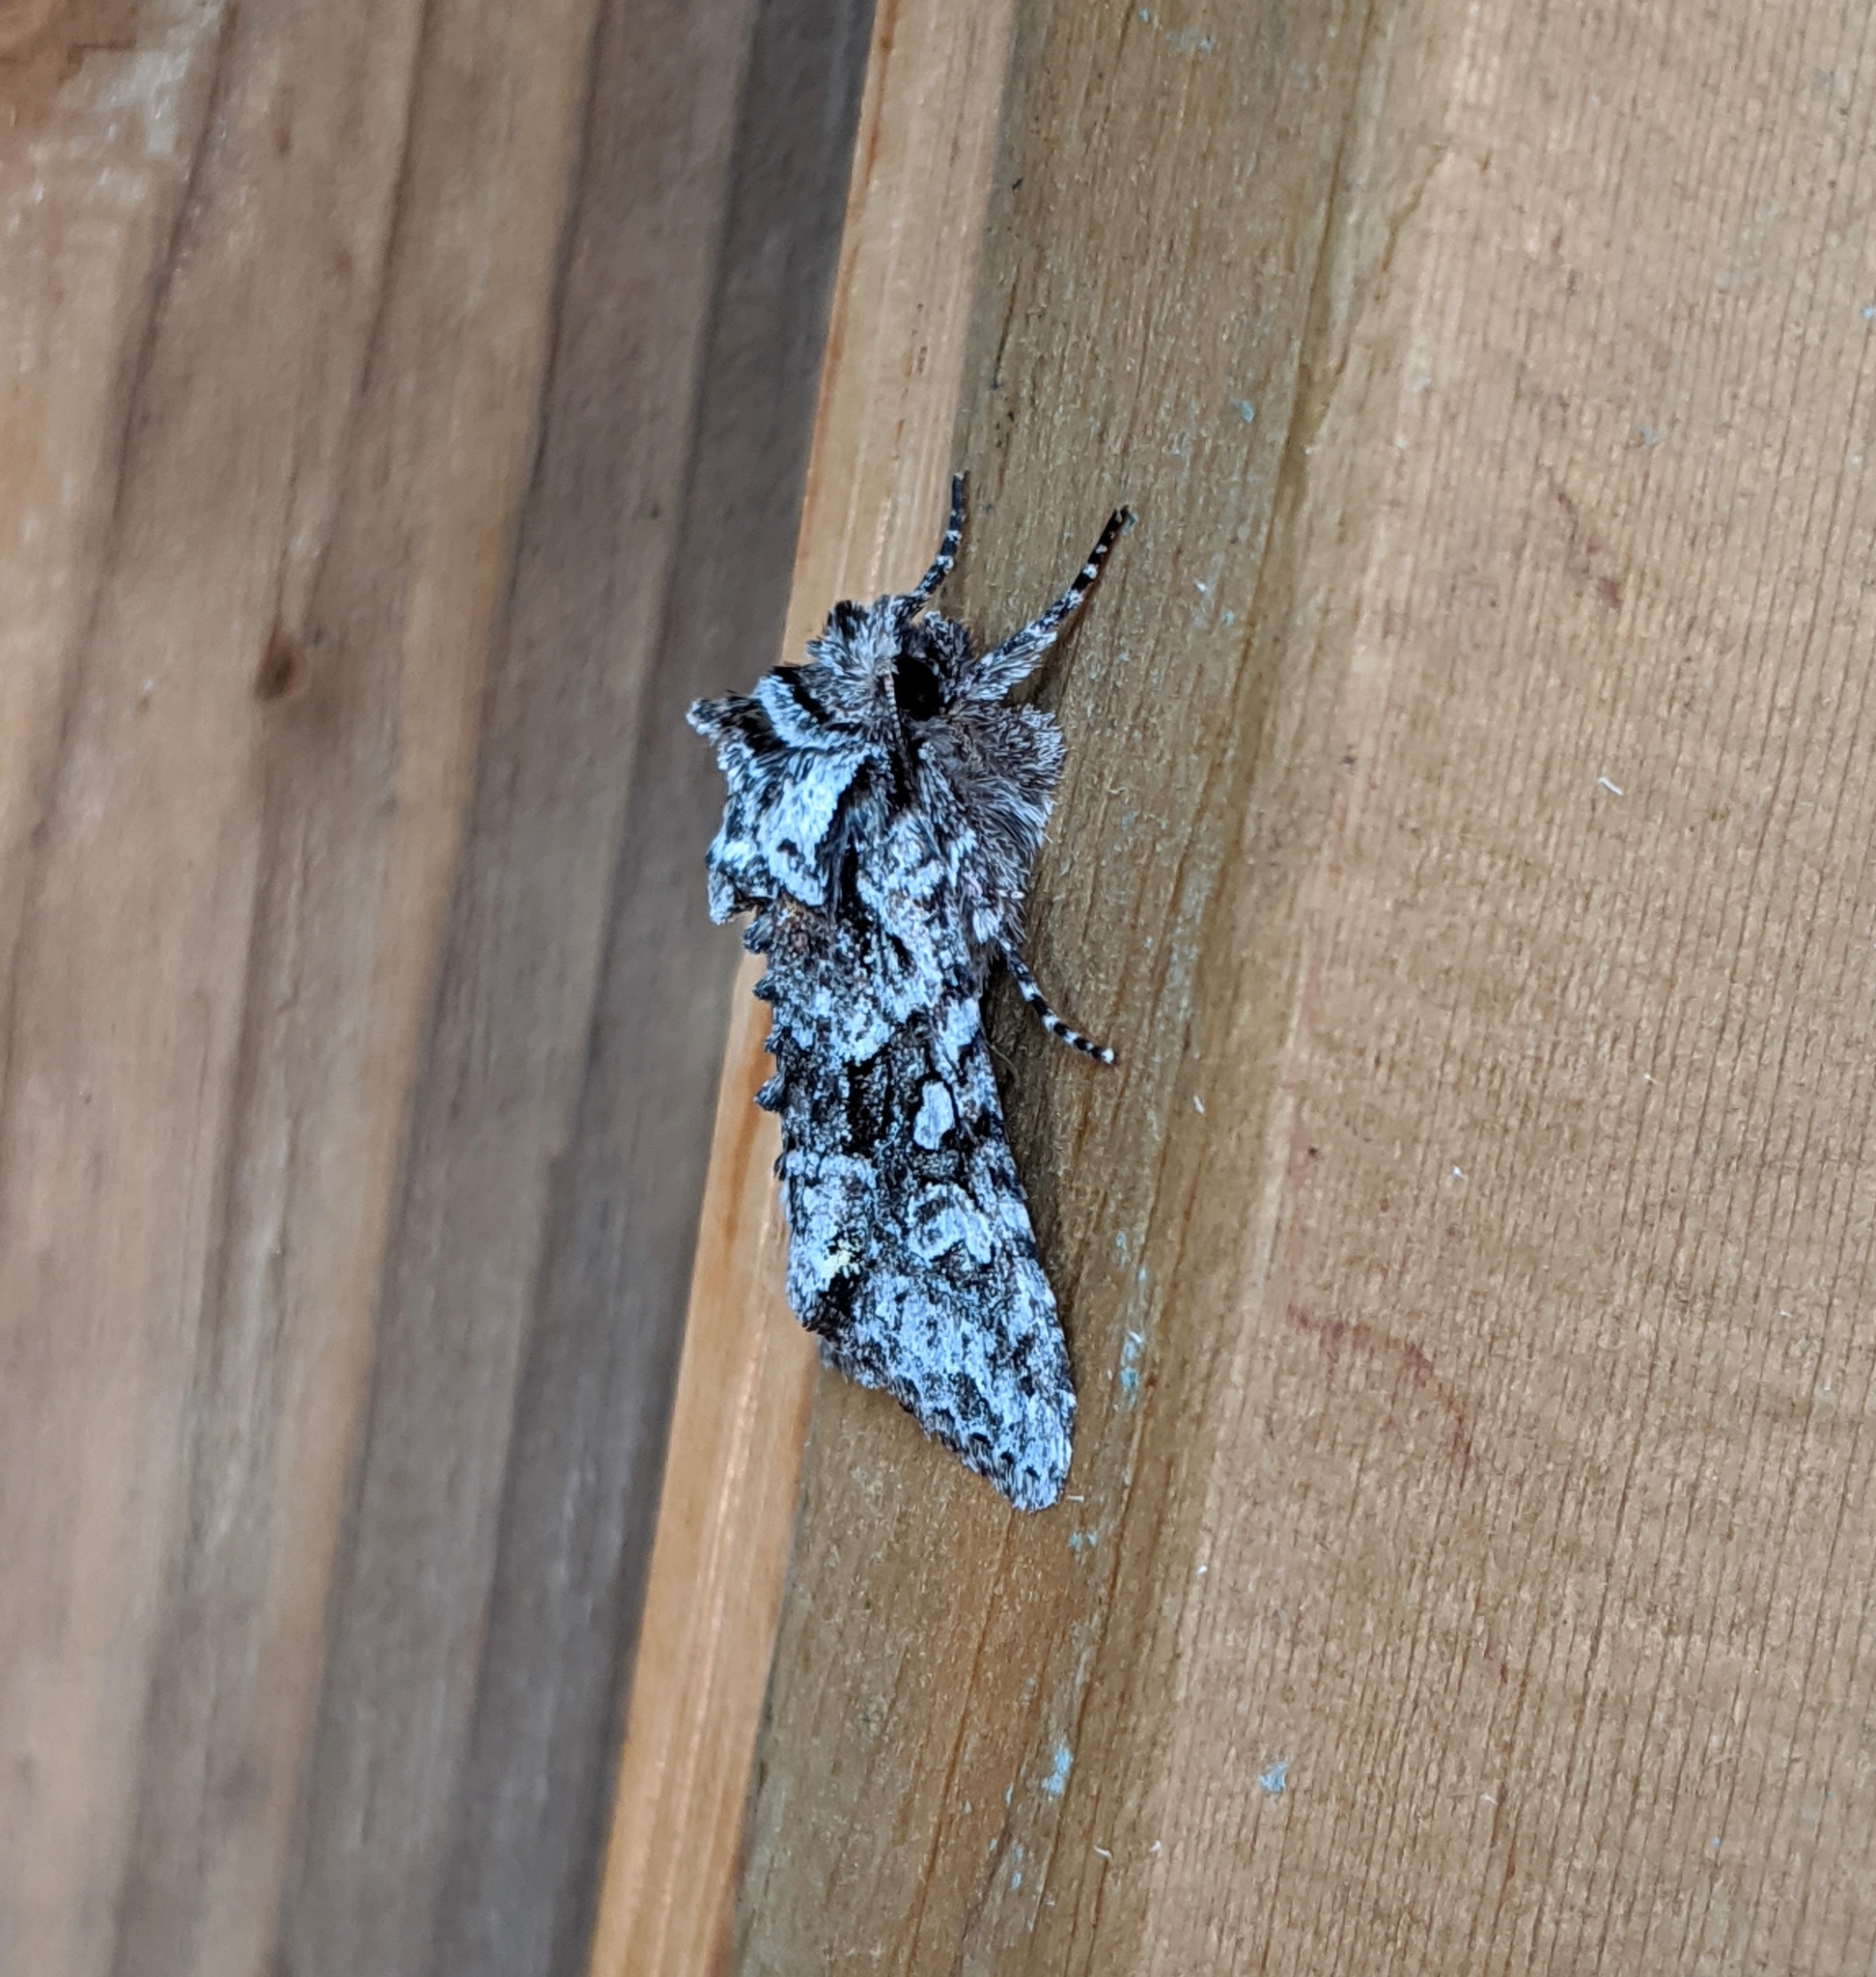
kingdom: Animalia
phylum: Arthropoda
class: Insecta
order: Lepidoptera
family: Noctuidae
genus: Lacinipolia
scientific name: Lacinipolia cuneata
